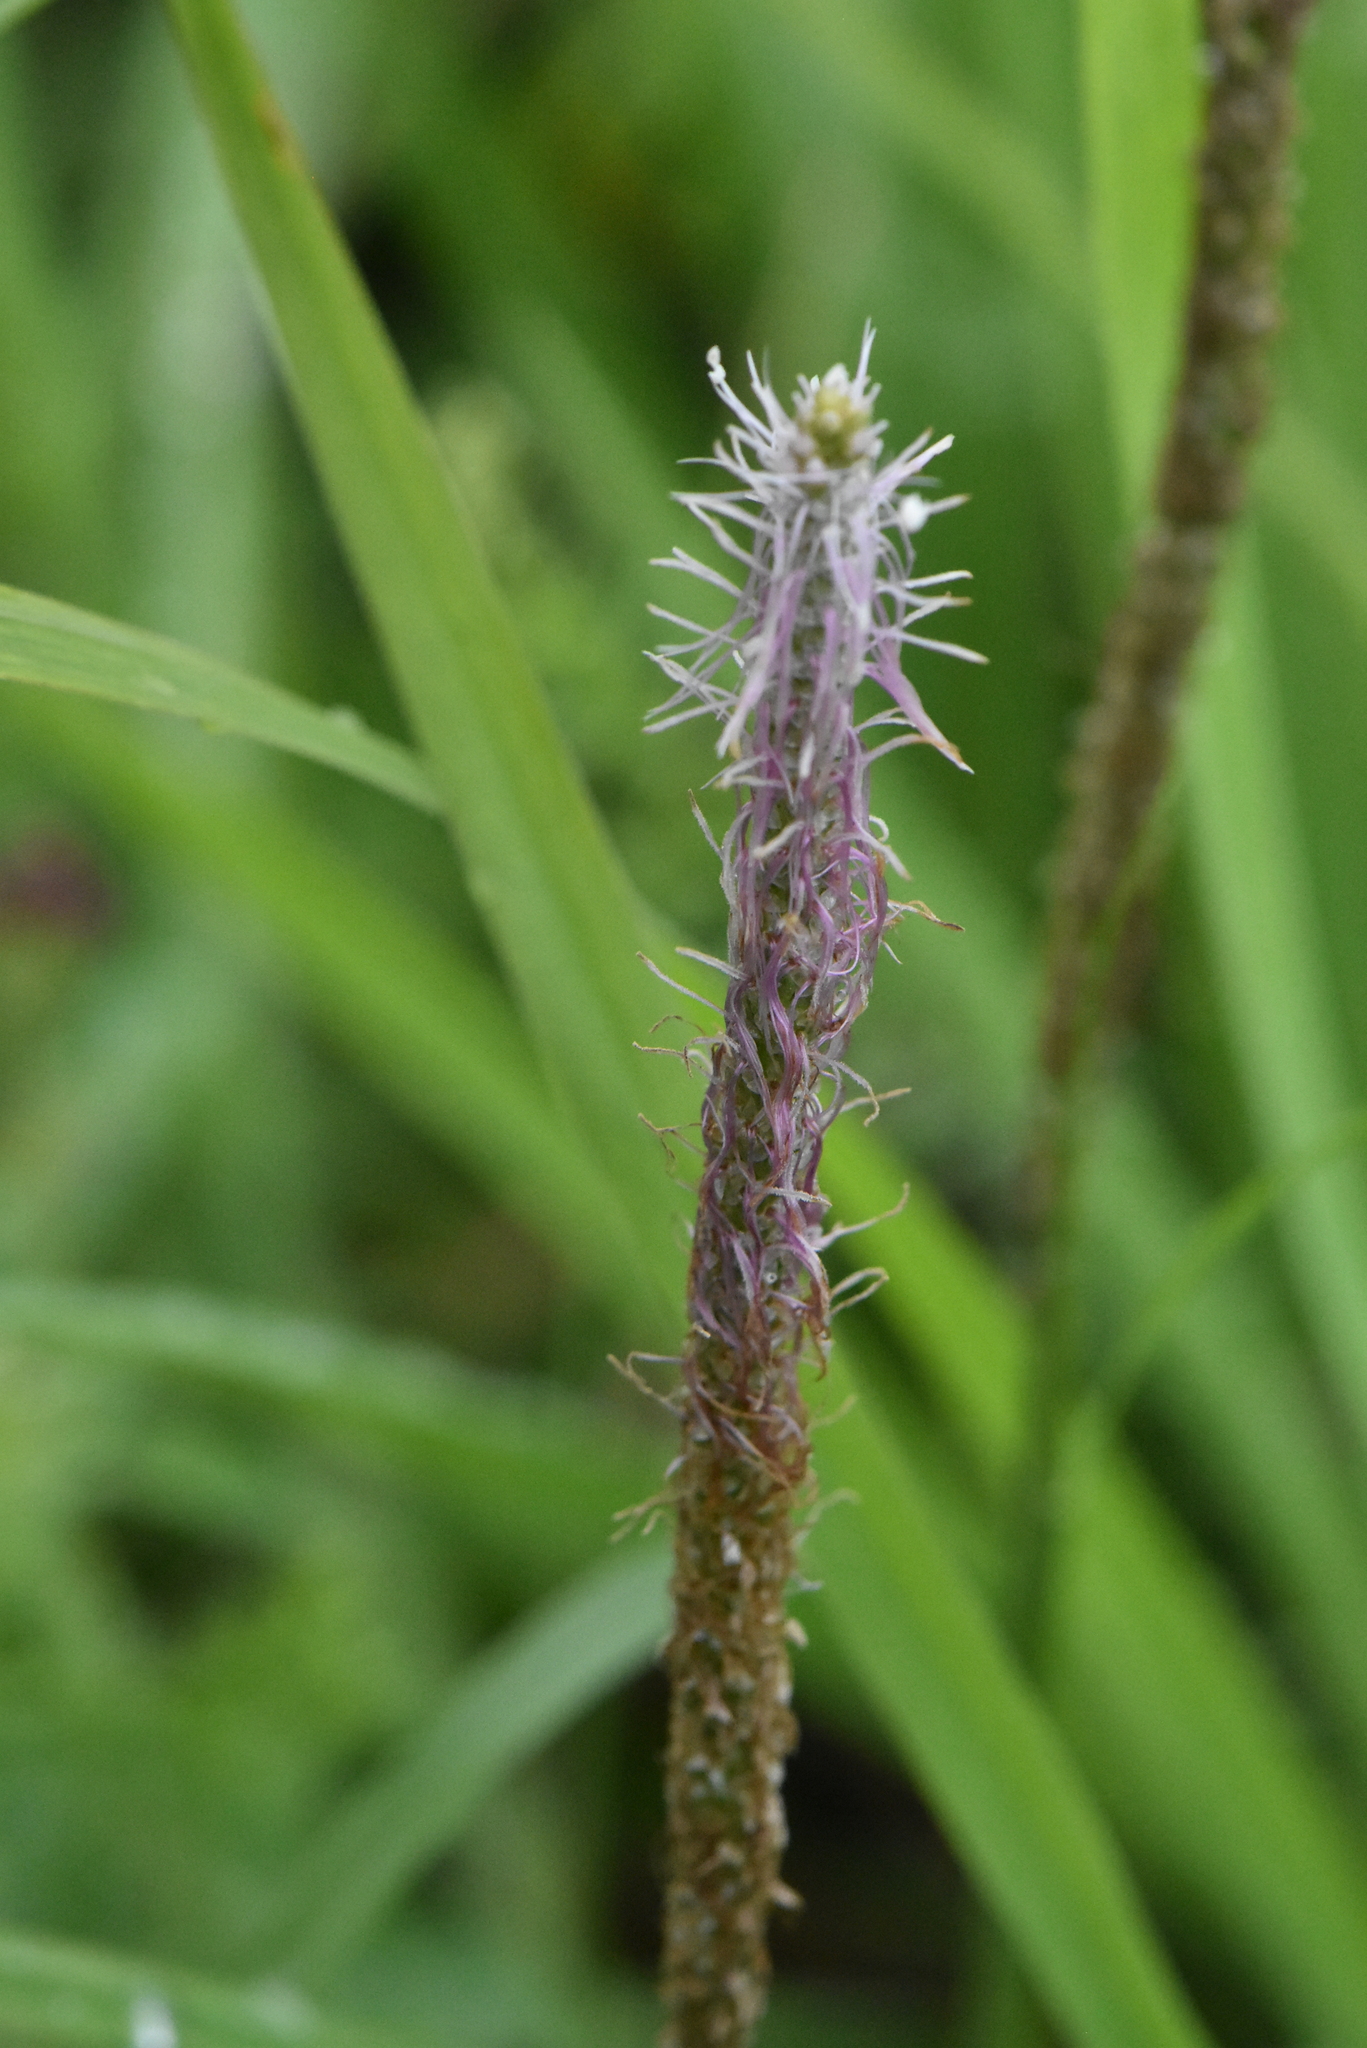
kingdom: Plantae
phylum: Tracheophyta
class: Magnoliopsida
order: Lamiales
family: Plantaginaceae
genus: Plantago
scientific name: Plantago urvillei
